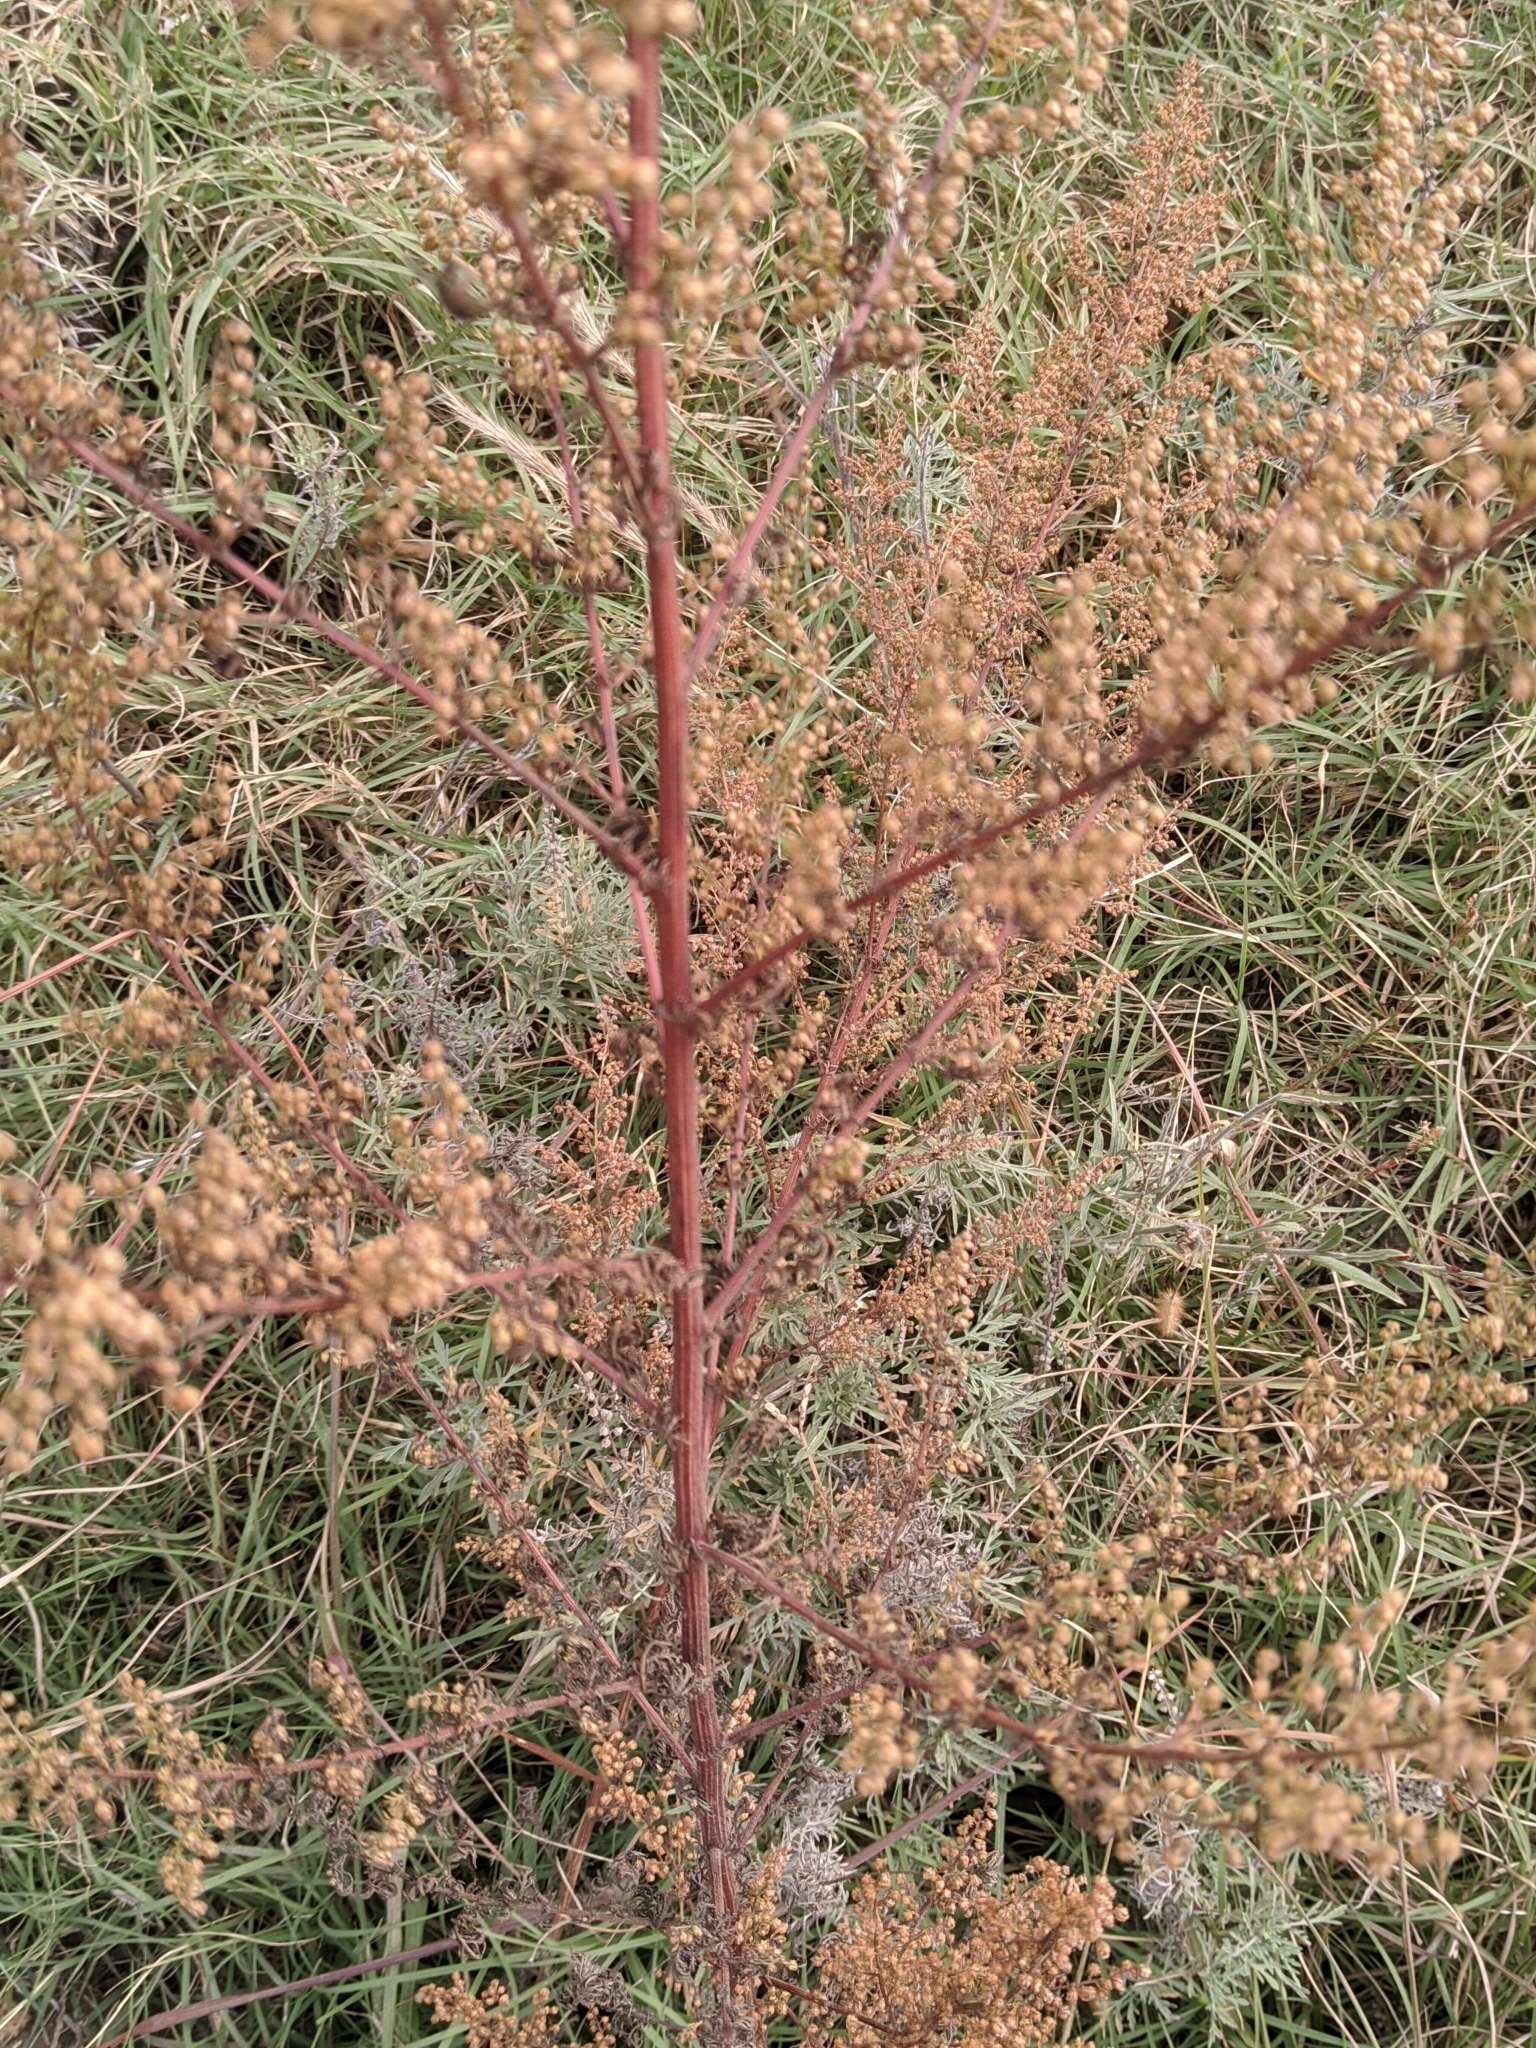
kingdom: Plantae
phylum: Tracheophyta
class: Magnoliopsida
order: Asterales
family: Asteraceae
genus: Artemisia
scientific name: Artemisia annua
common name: Sweet sagewort
